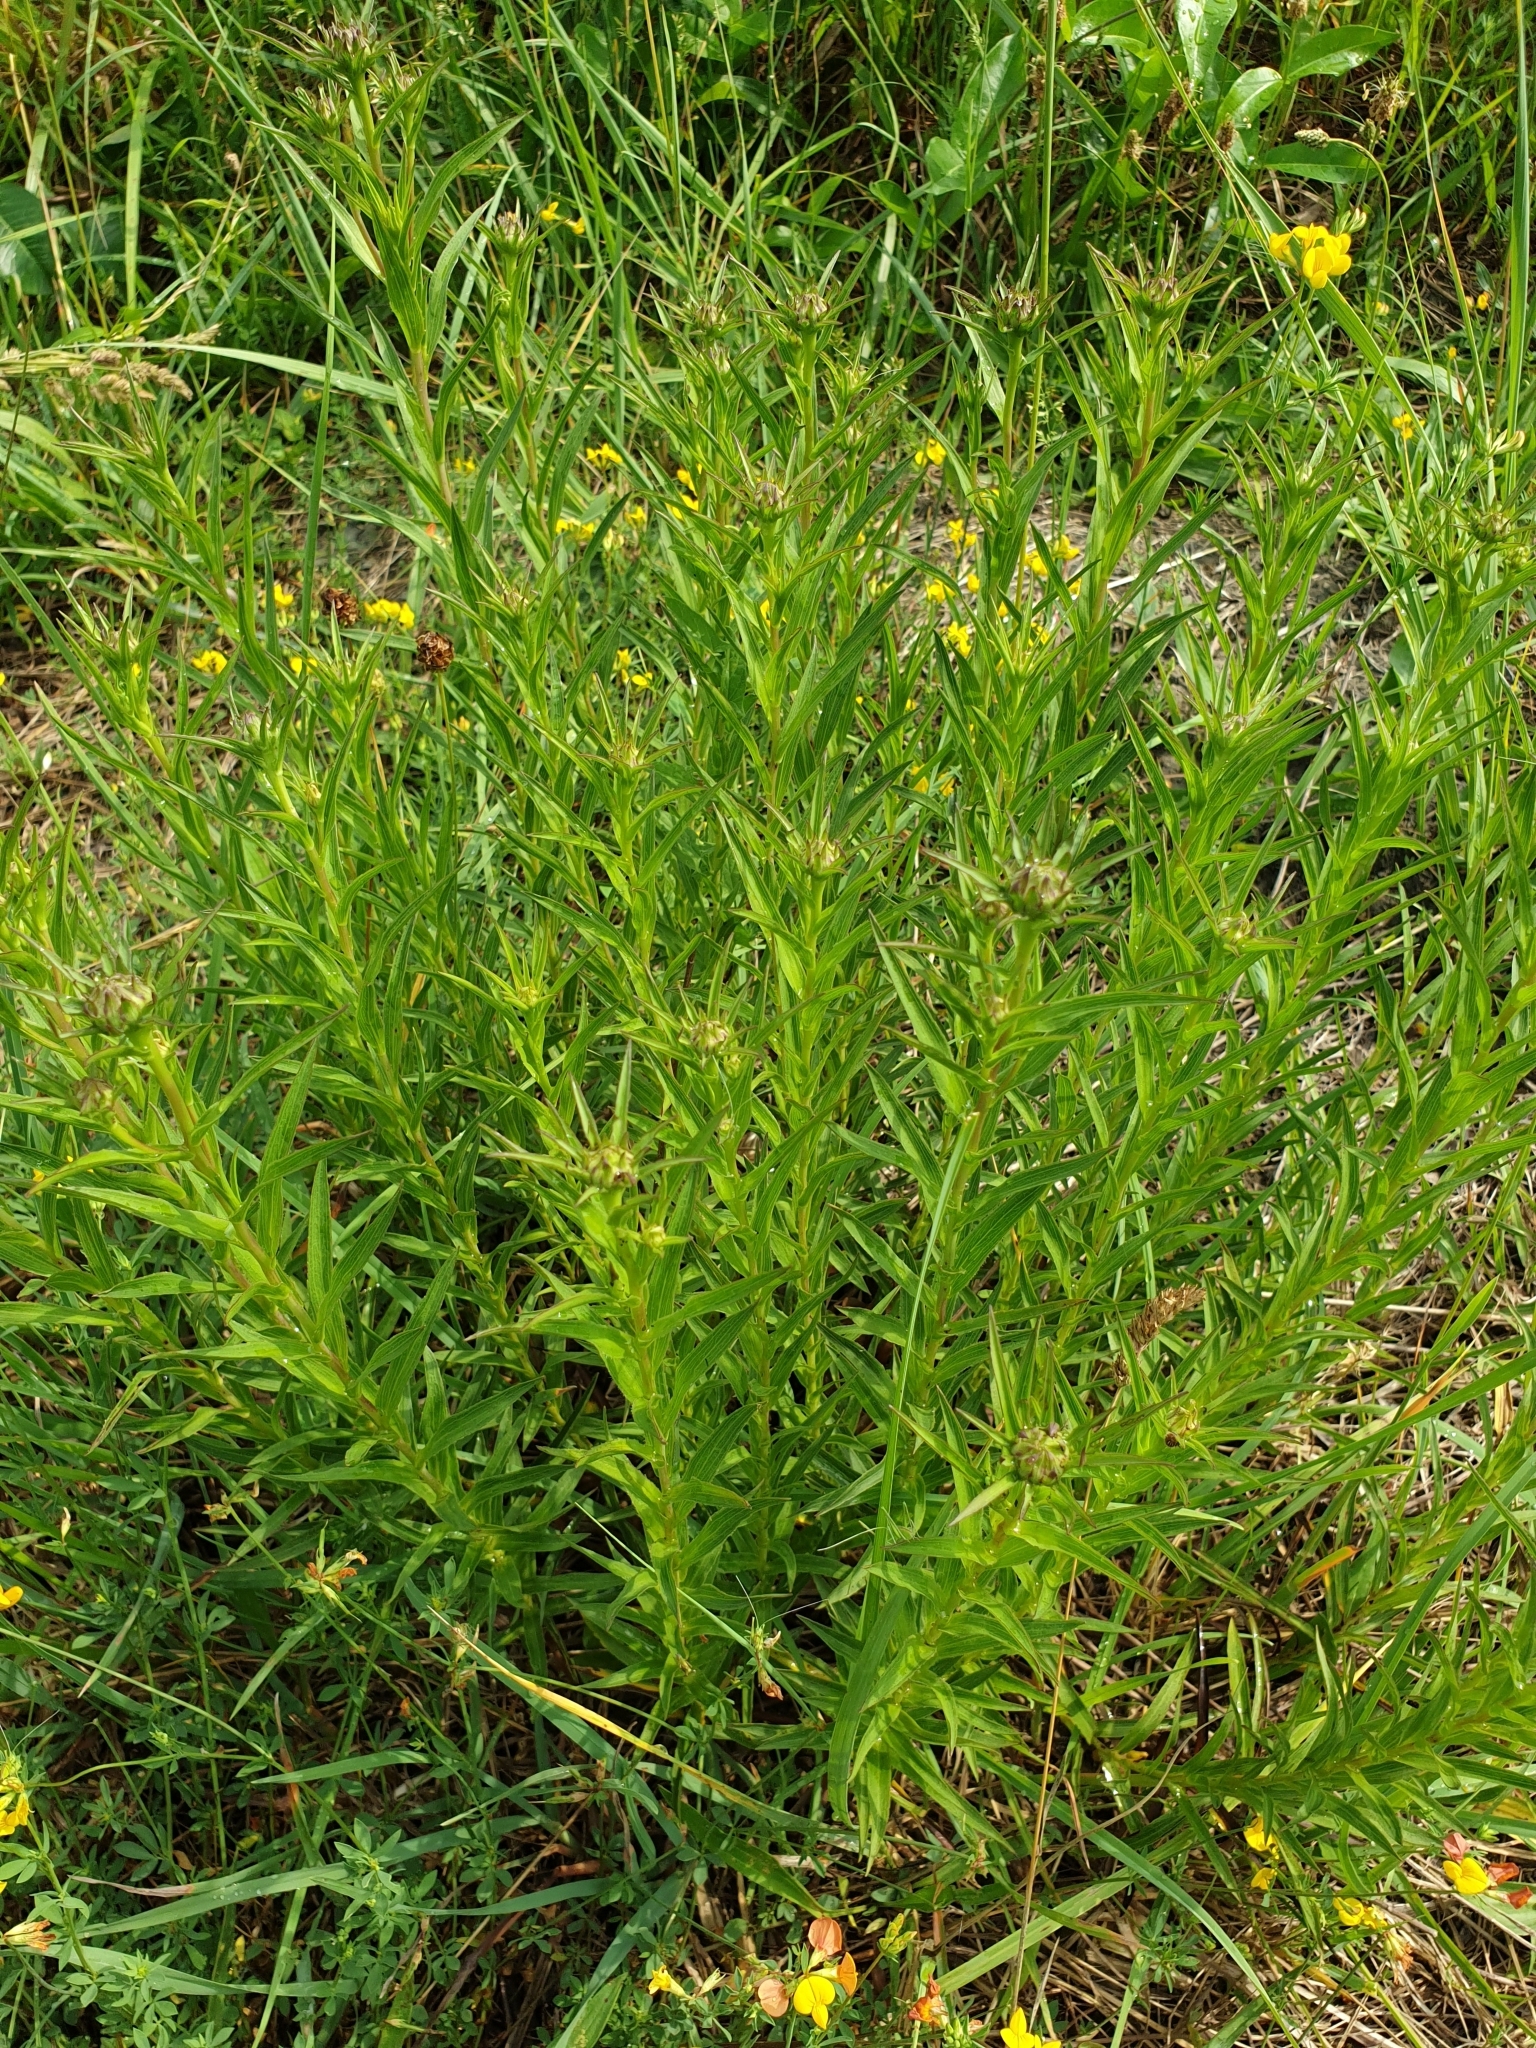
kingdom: Plantae
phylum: Tracheophyta
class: Magnoliopsida
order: Asterales
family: Asteraceae
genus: Pentanema
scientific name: Pentanema ensifolium
